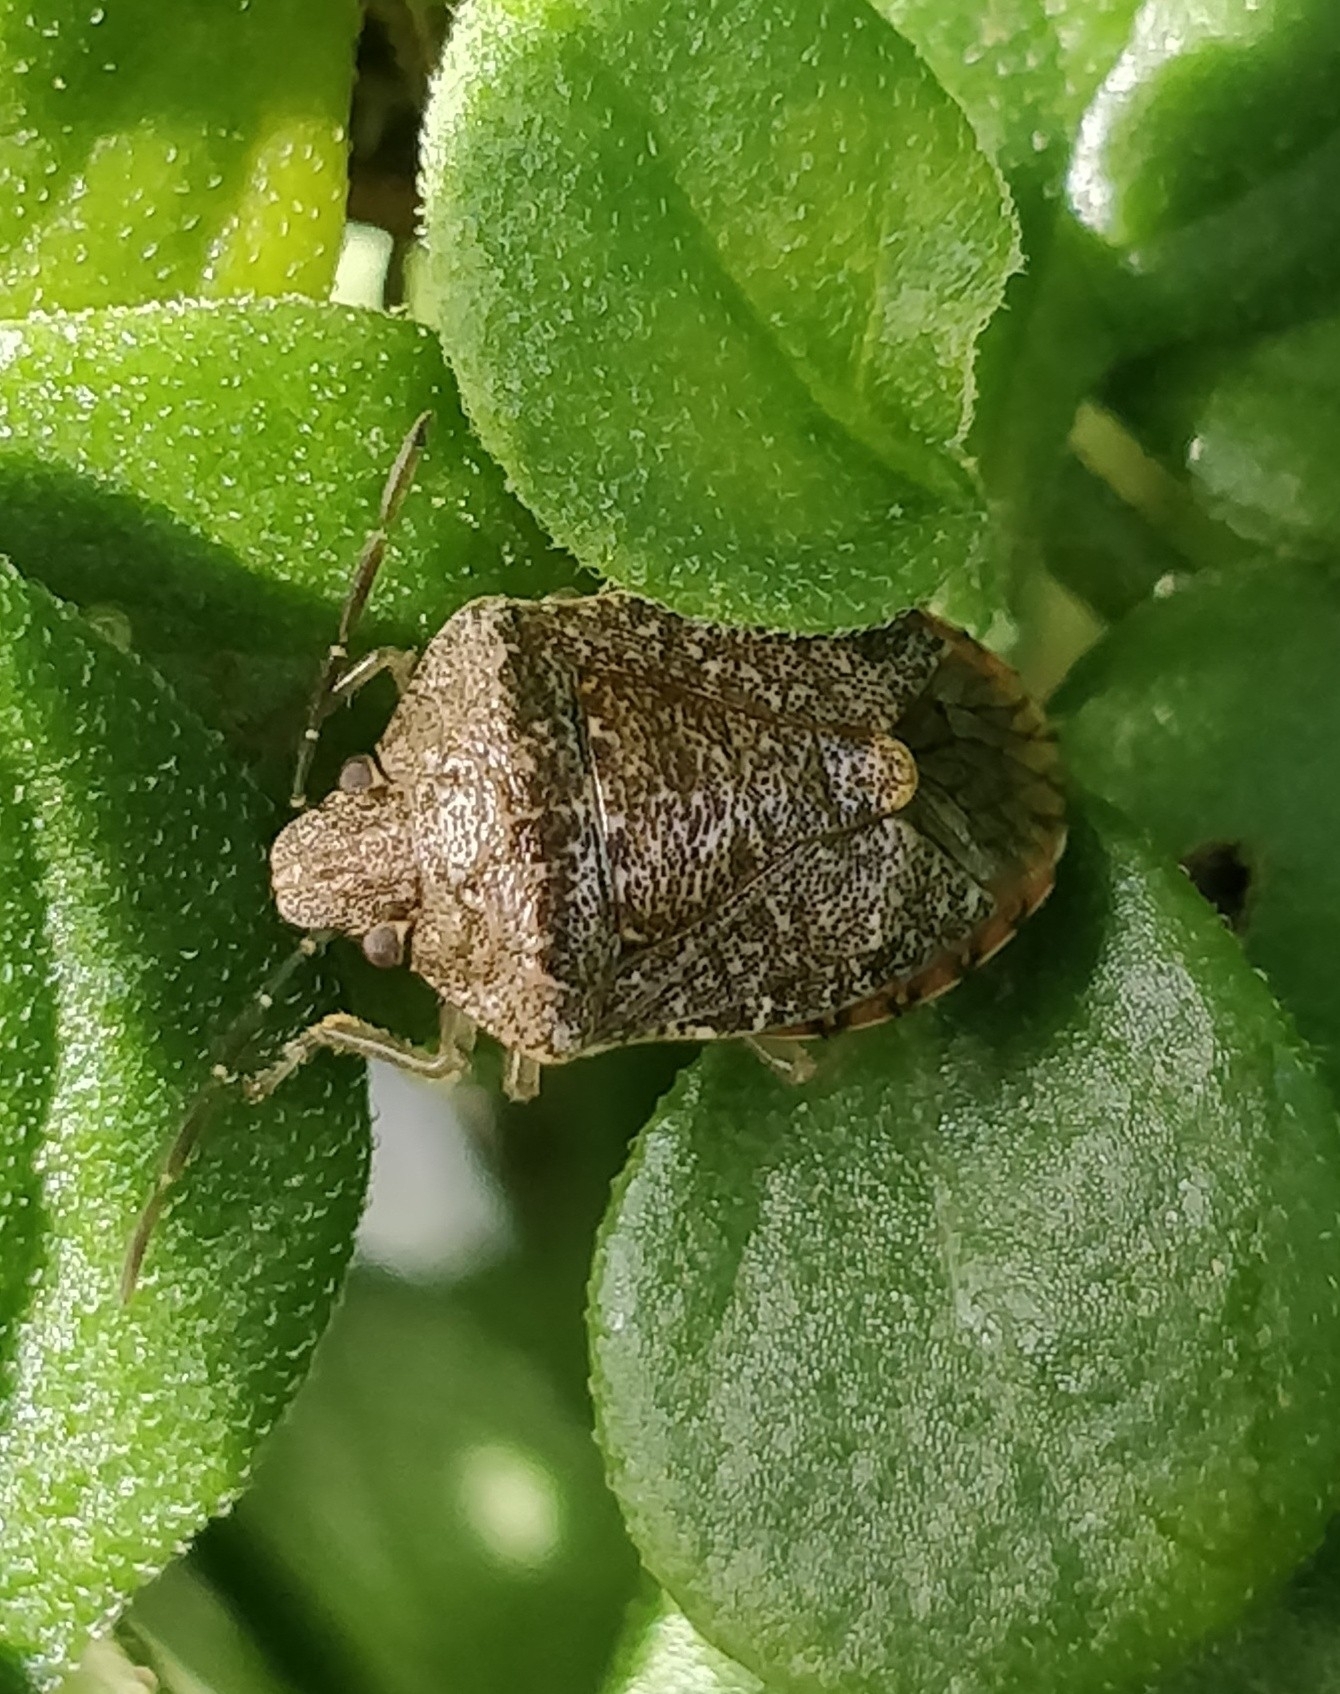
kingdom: Animalia
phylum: Arthropoda
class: Insecta
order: Hemiptera
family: Pentatomidae
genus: Dryadocoris
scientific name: Dryadocoris apicalis
